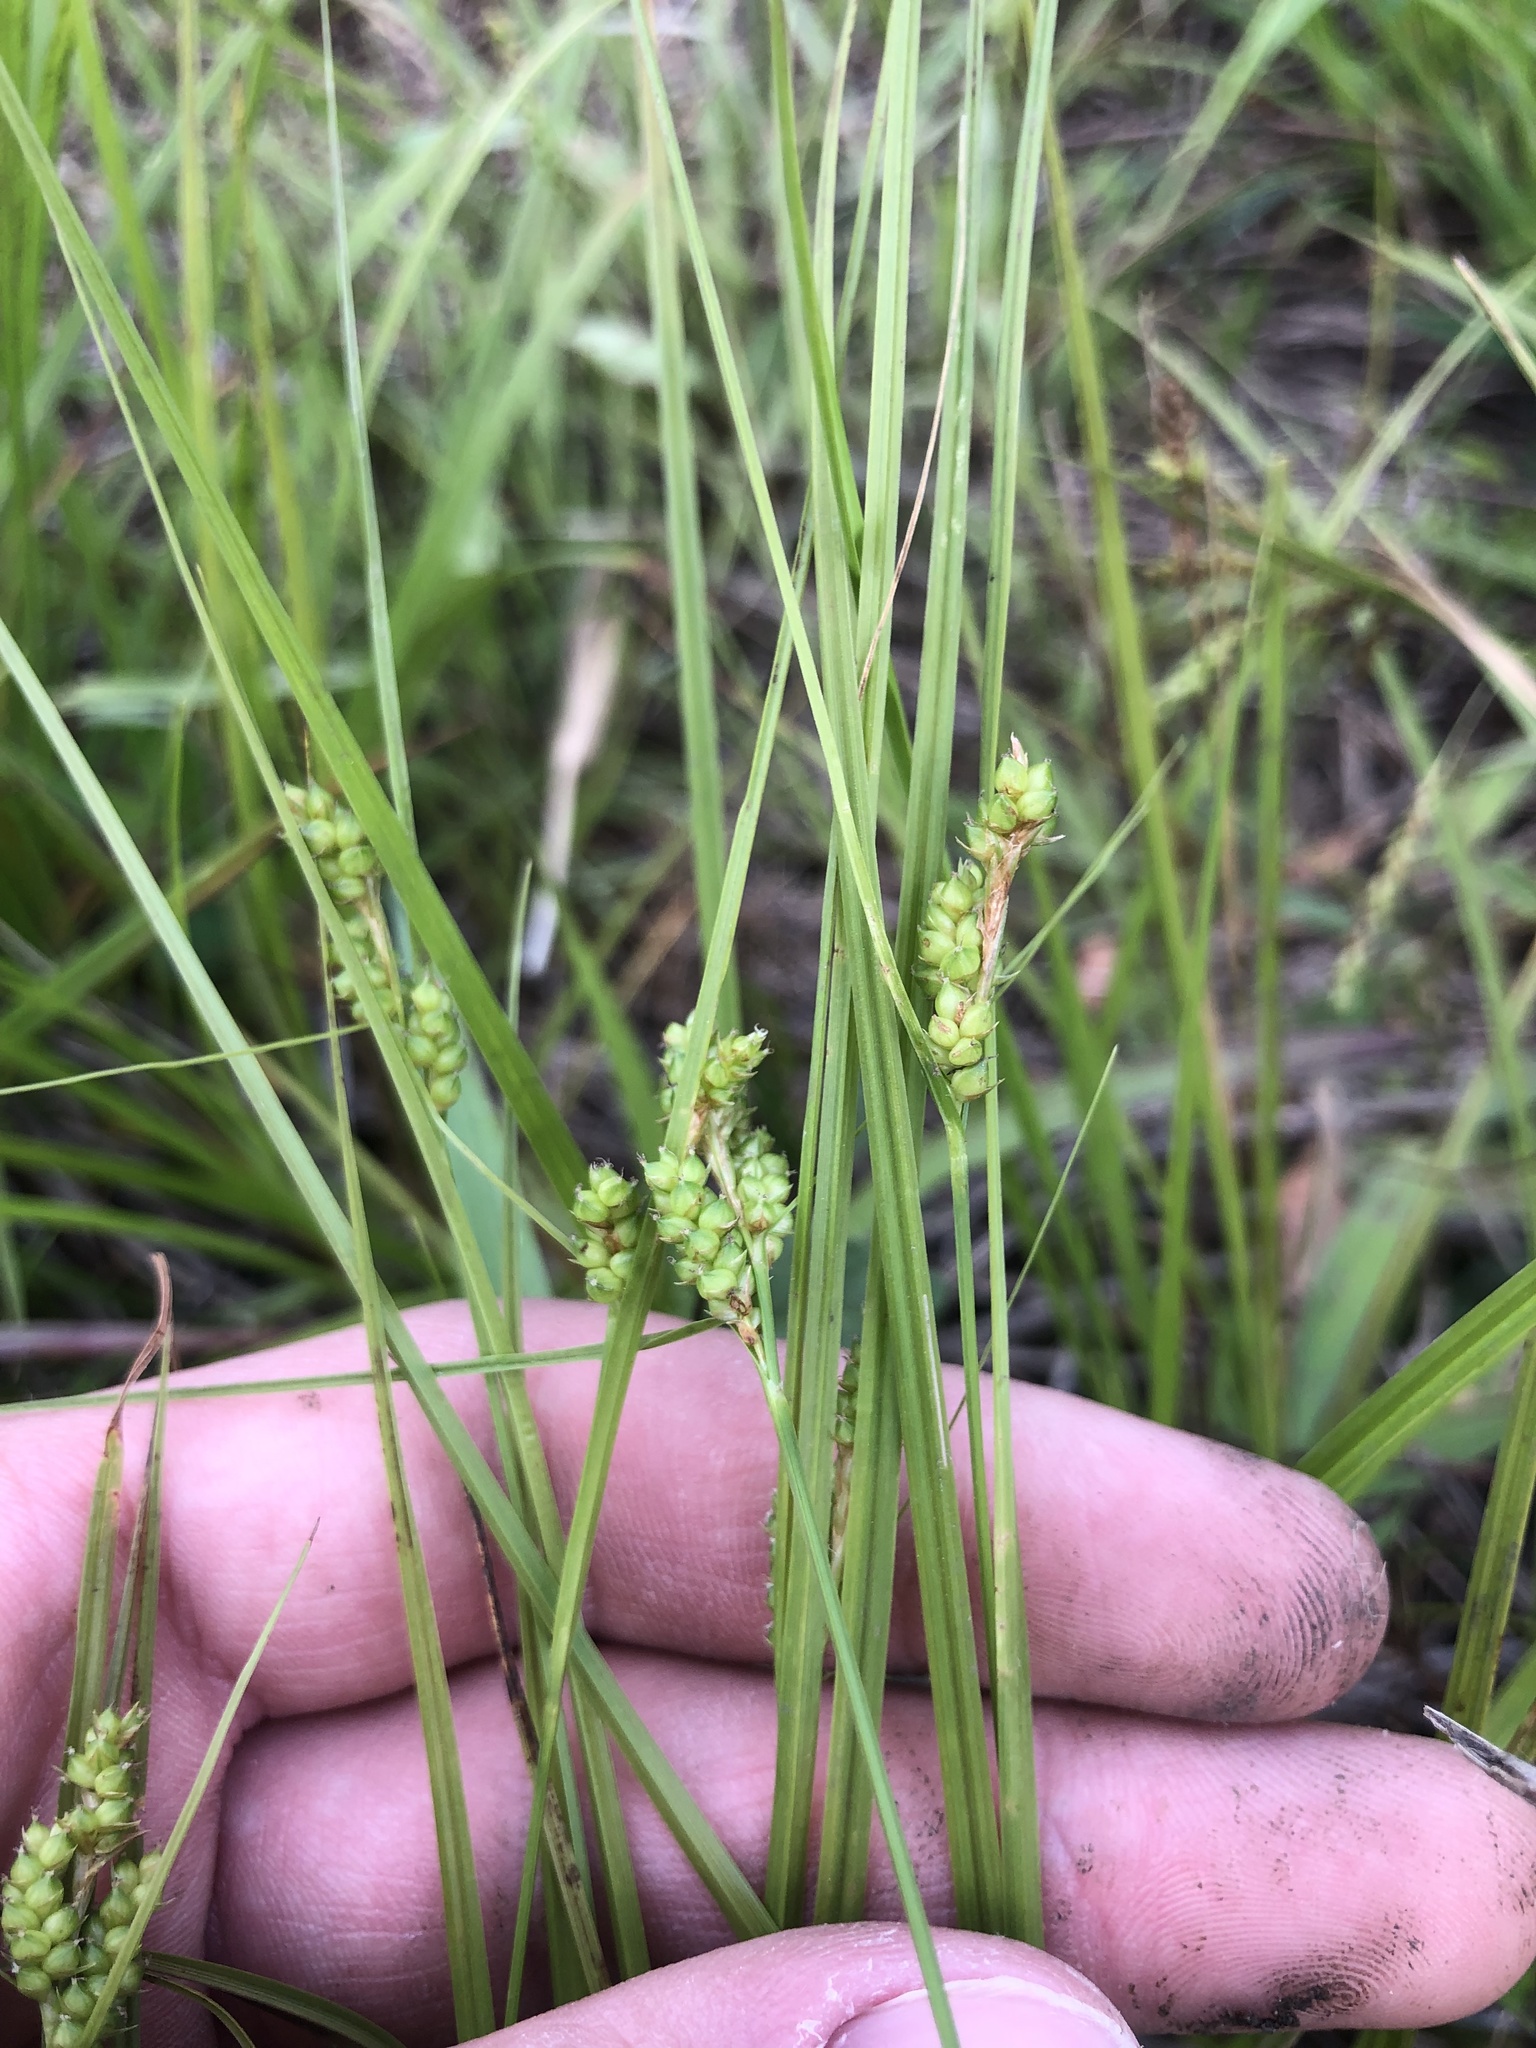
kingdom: Plantae
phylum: Tracheophyta
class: Liliopsida
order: Poales
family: Cyperaceae
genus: Carex
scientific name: Carex caroliniana
